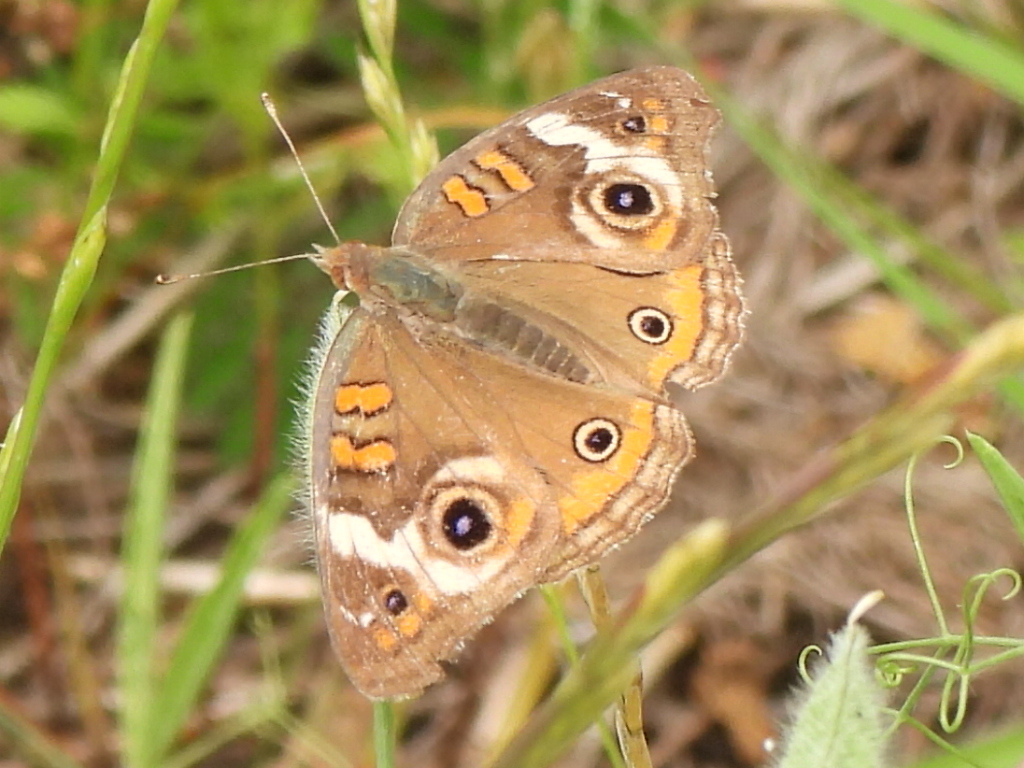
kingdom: Animalia
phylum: Arthropoda
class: Insecta
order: Lepidoptera
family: Nymphalidae
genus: Junonia
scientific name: Junonia coenia
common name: Common buckeye
